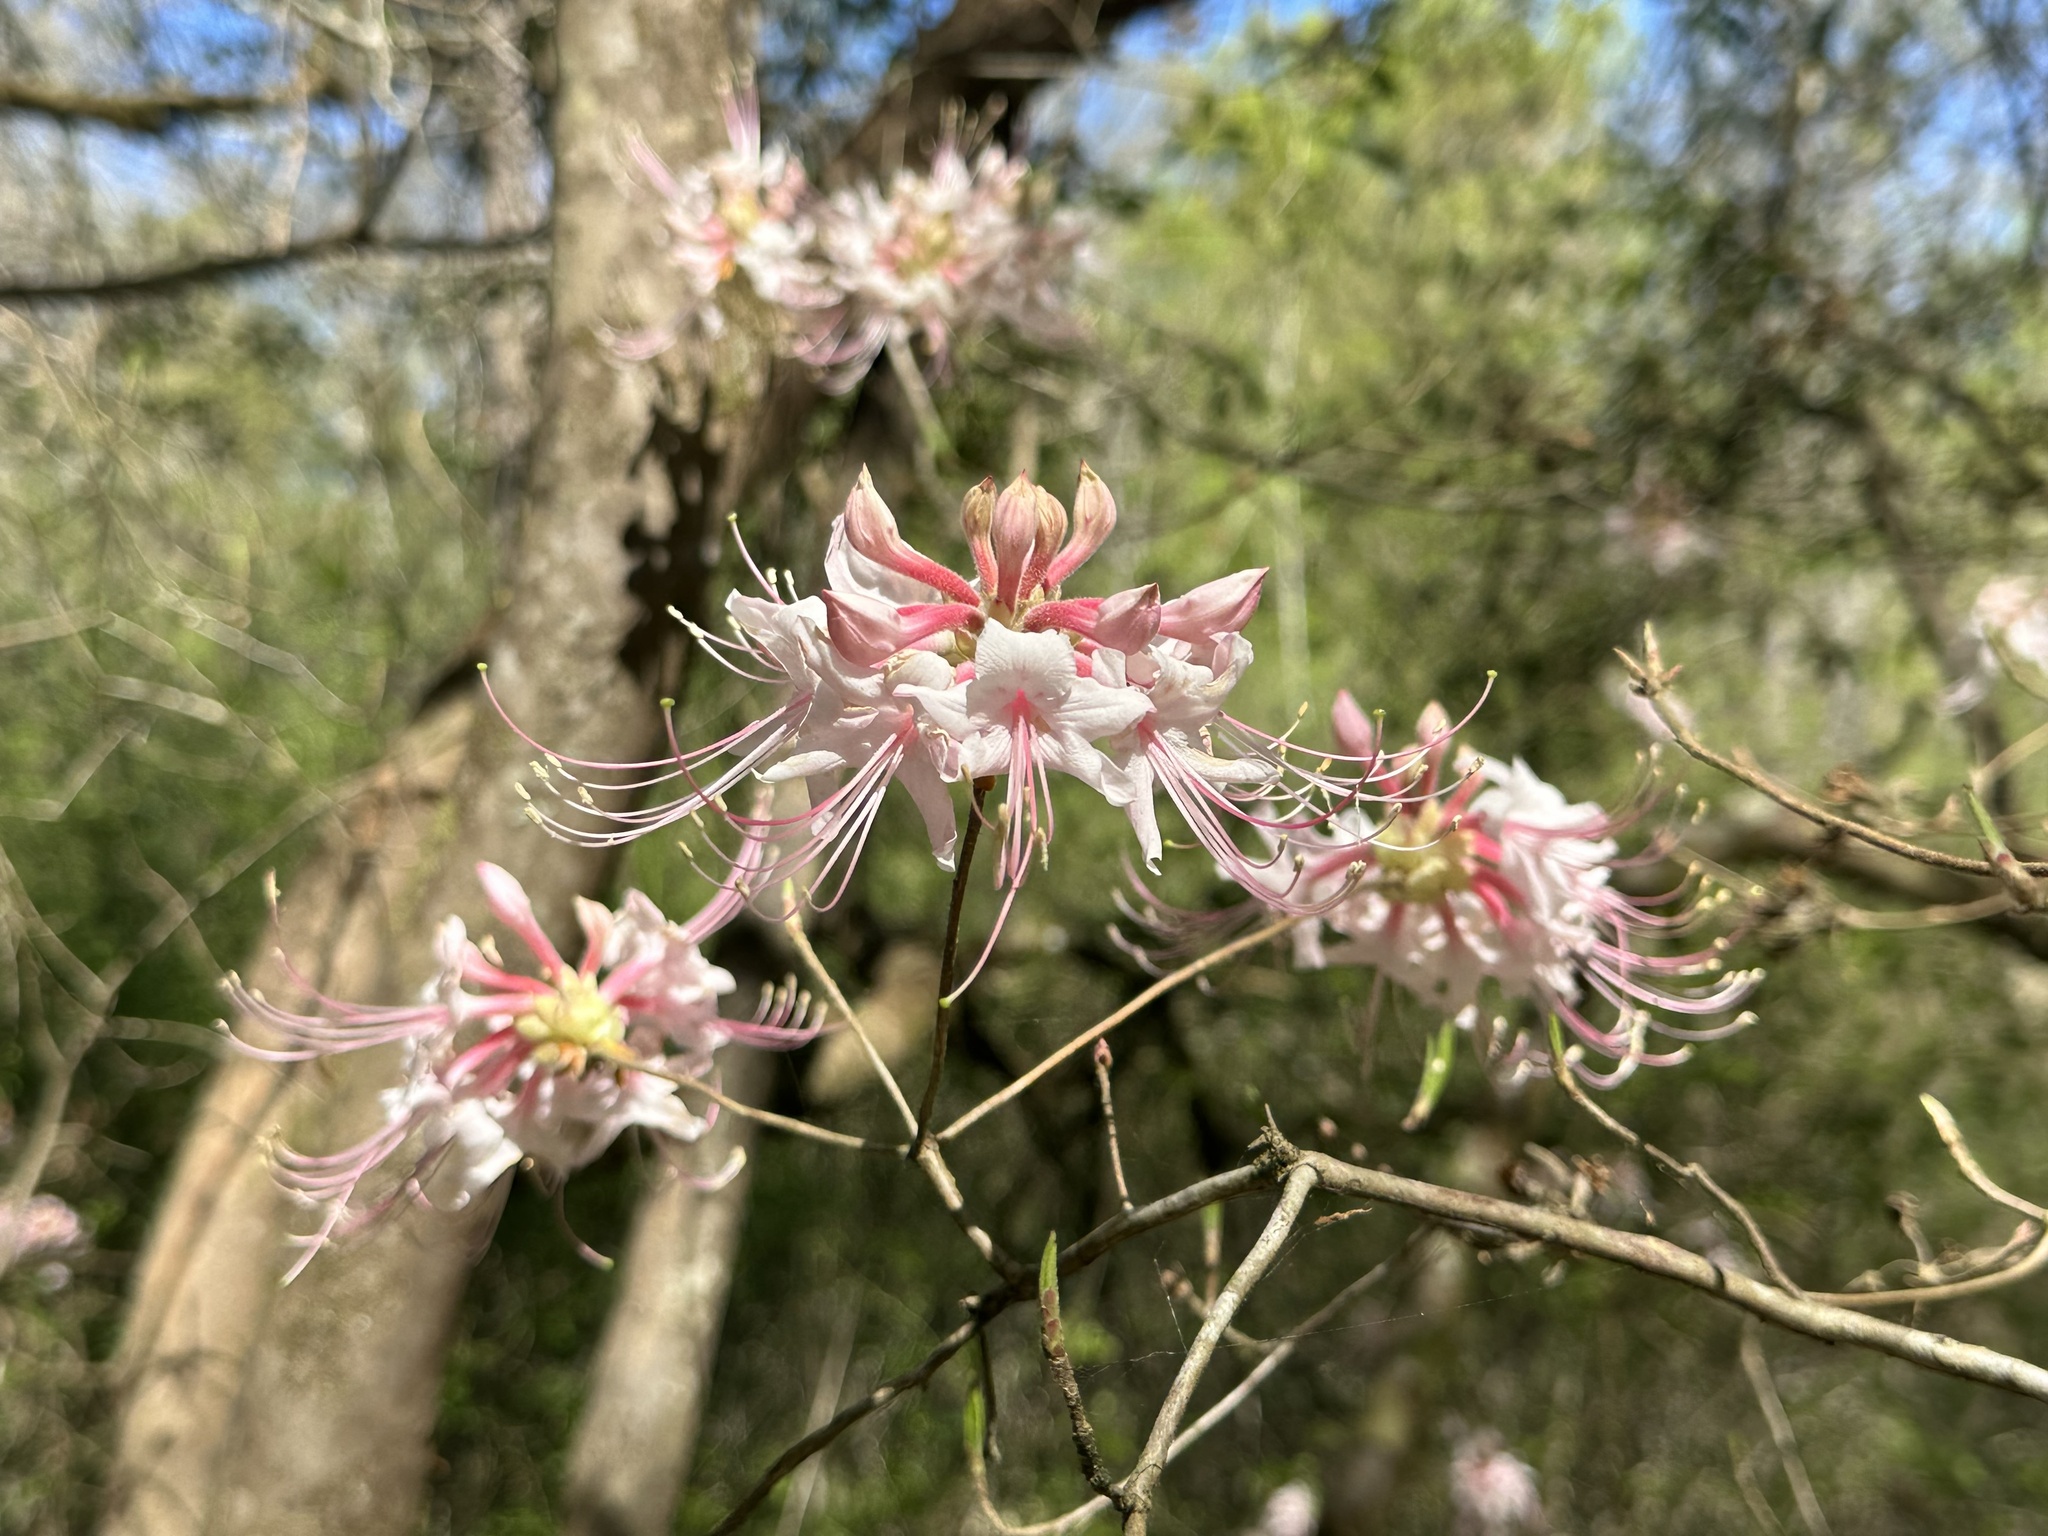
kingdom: Plantae
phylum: Tracheophyta
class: Magnoliopsida
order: Ericales
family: Ericaceae
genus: Rhododendron
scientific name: Rhododendron canescens
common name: Mountain azalea
